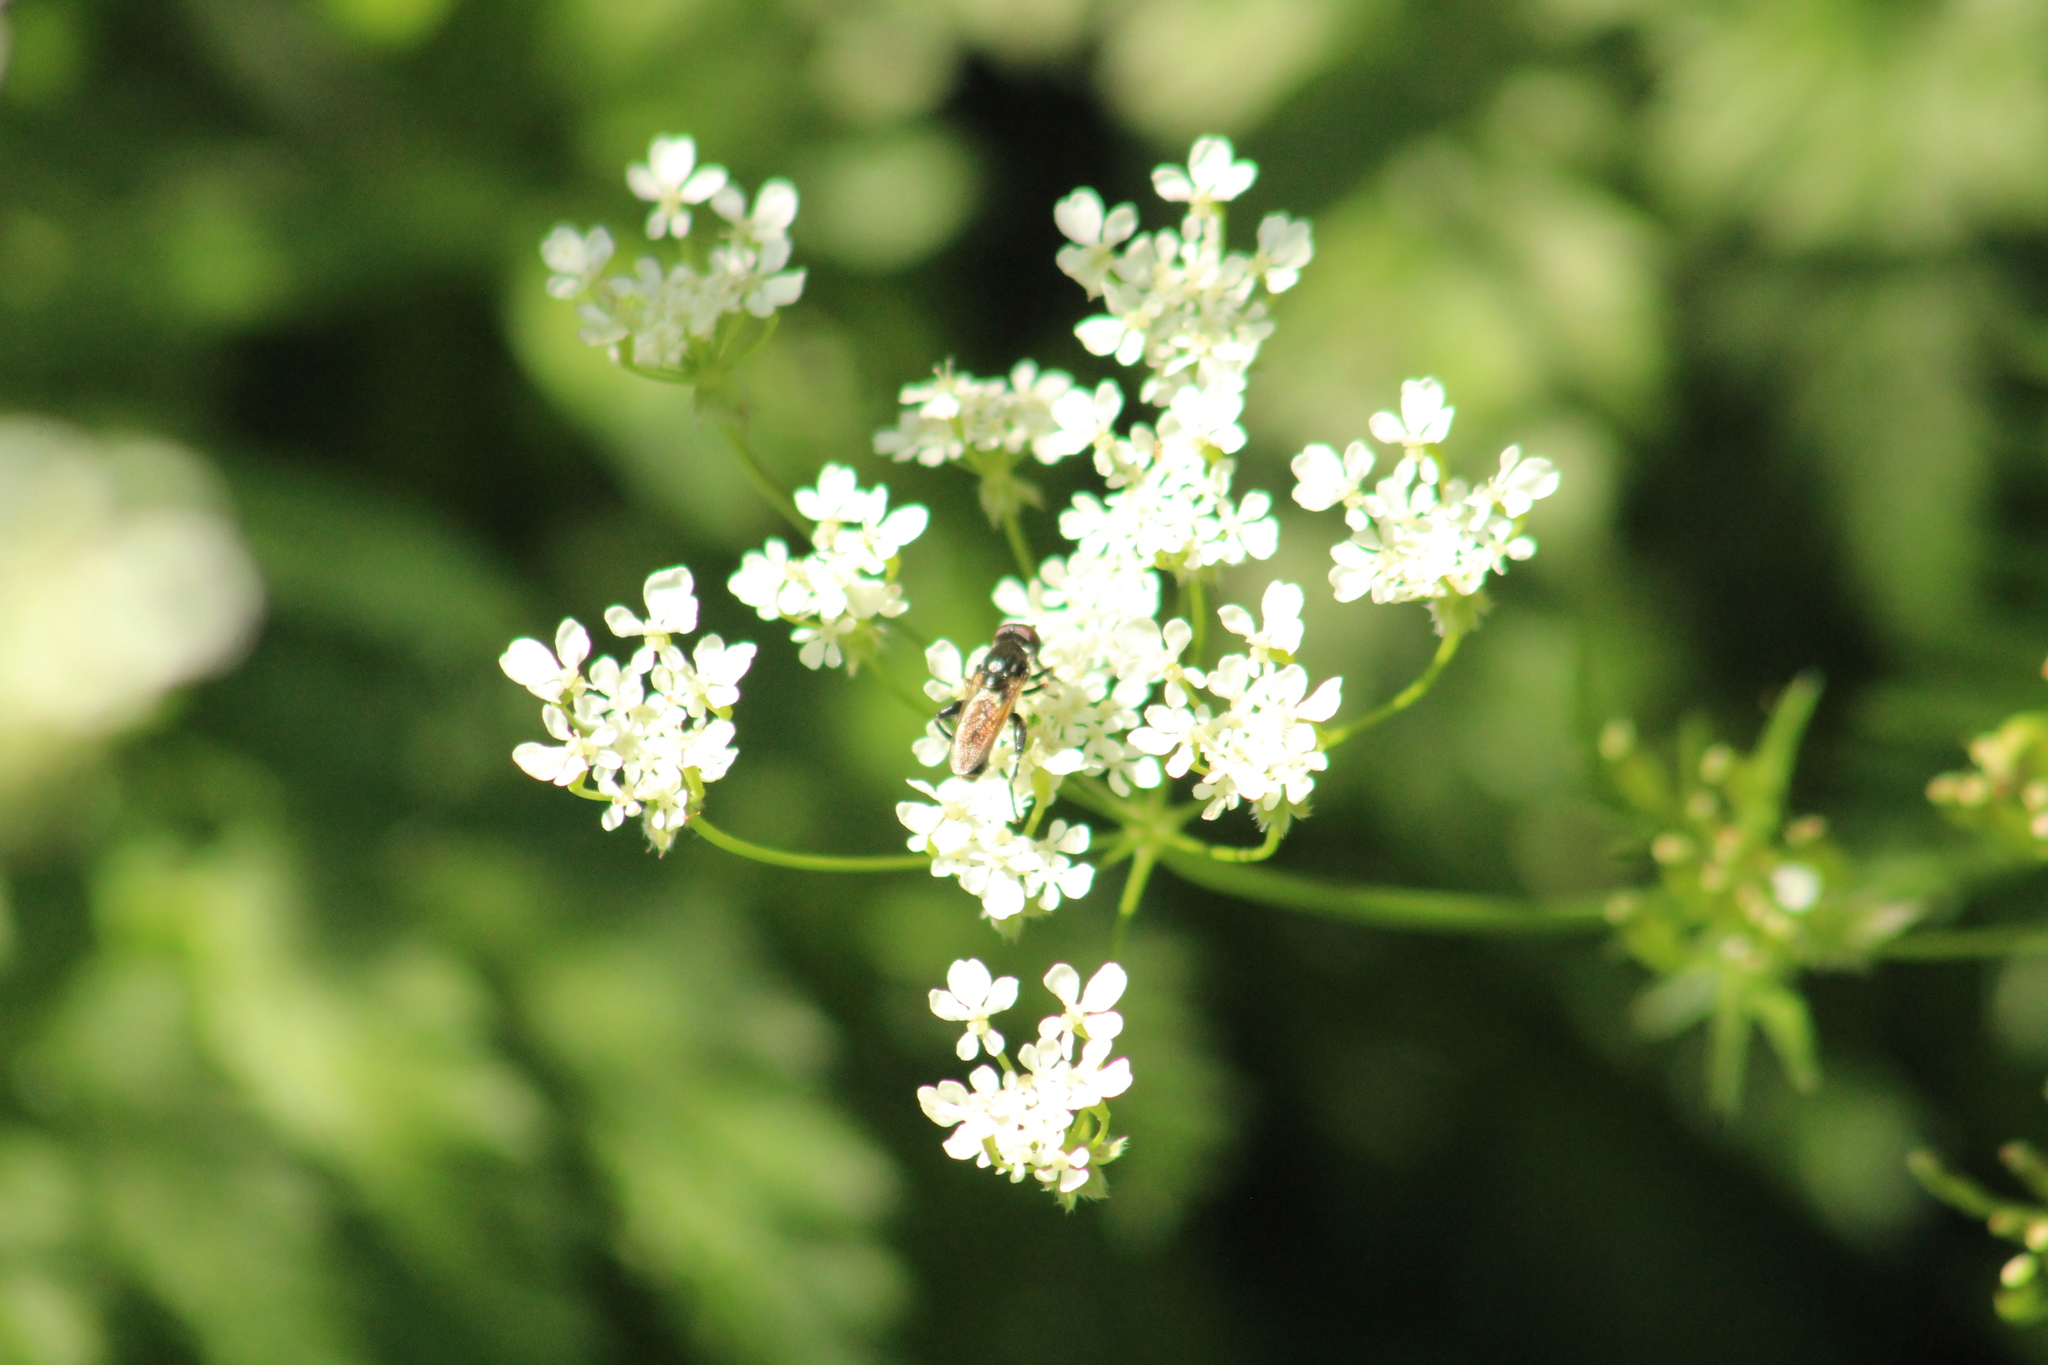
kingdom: Animalia
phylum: Arthropoda
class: Insecta
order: Diptera
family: Syrphidae
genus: Tropidia
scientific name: Tropidia scita
